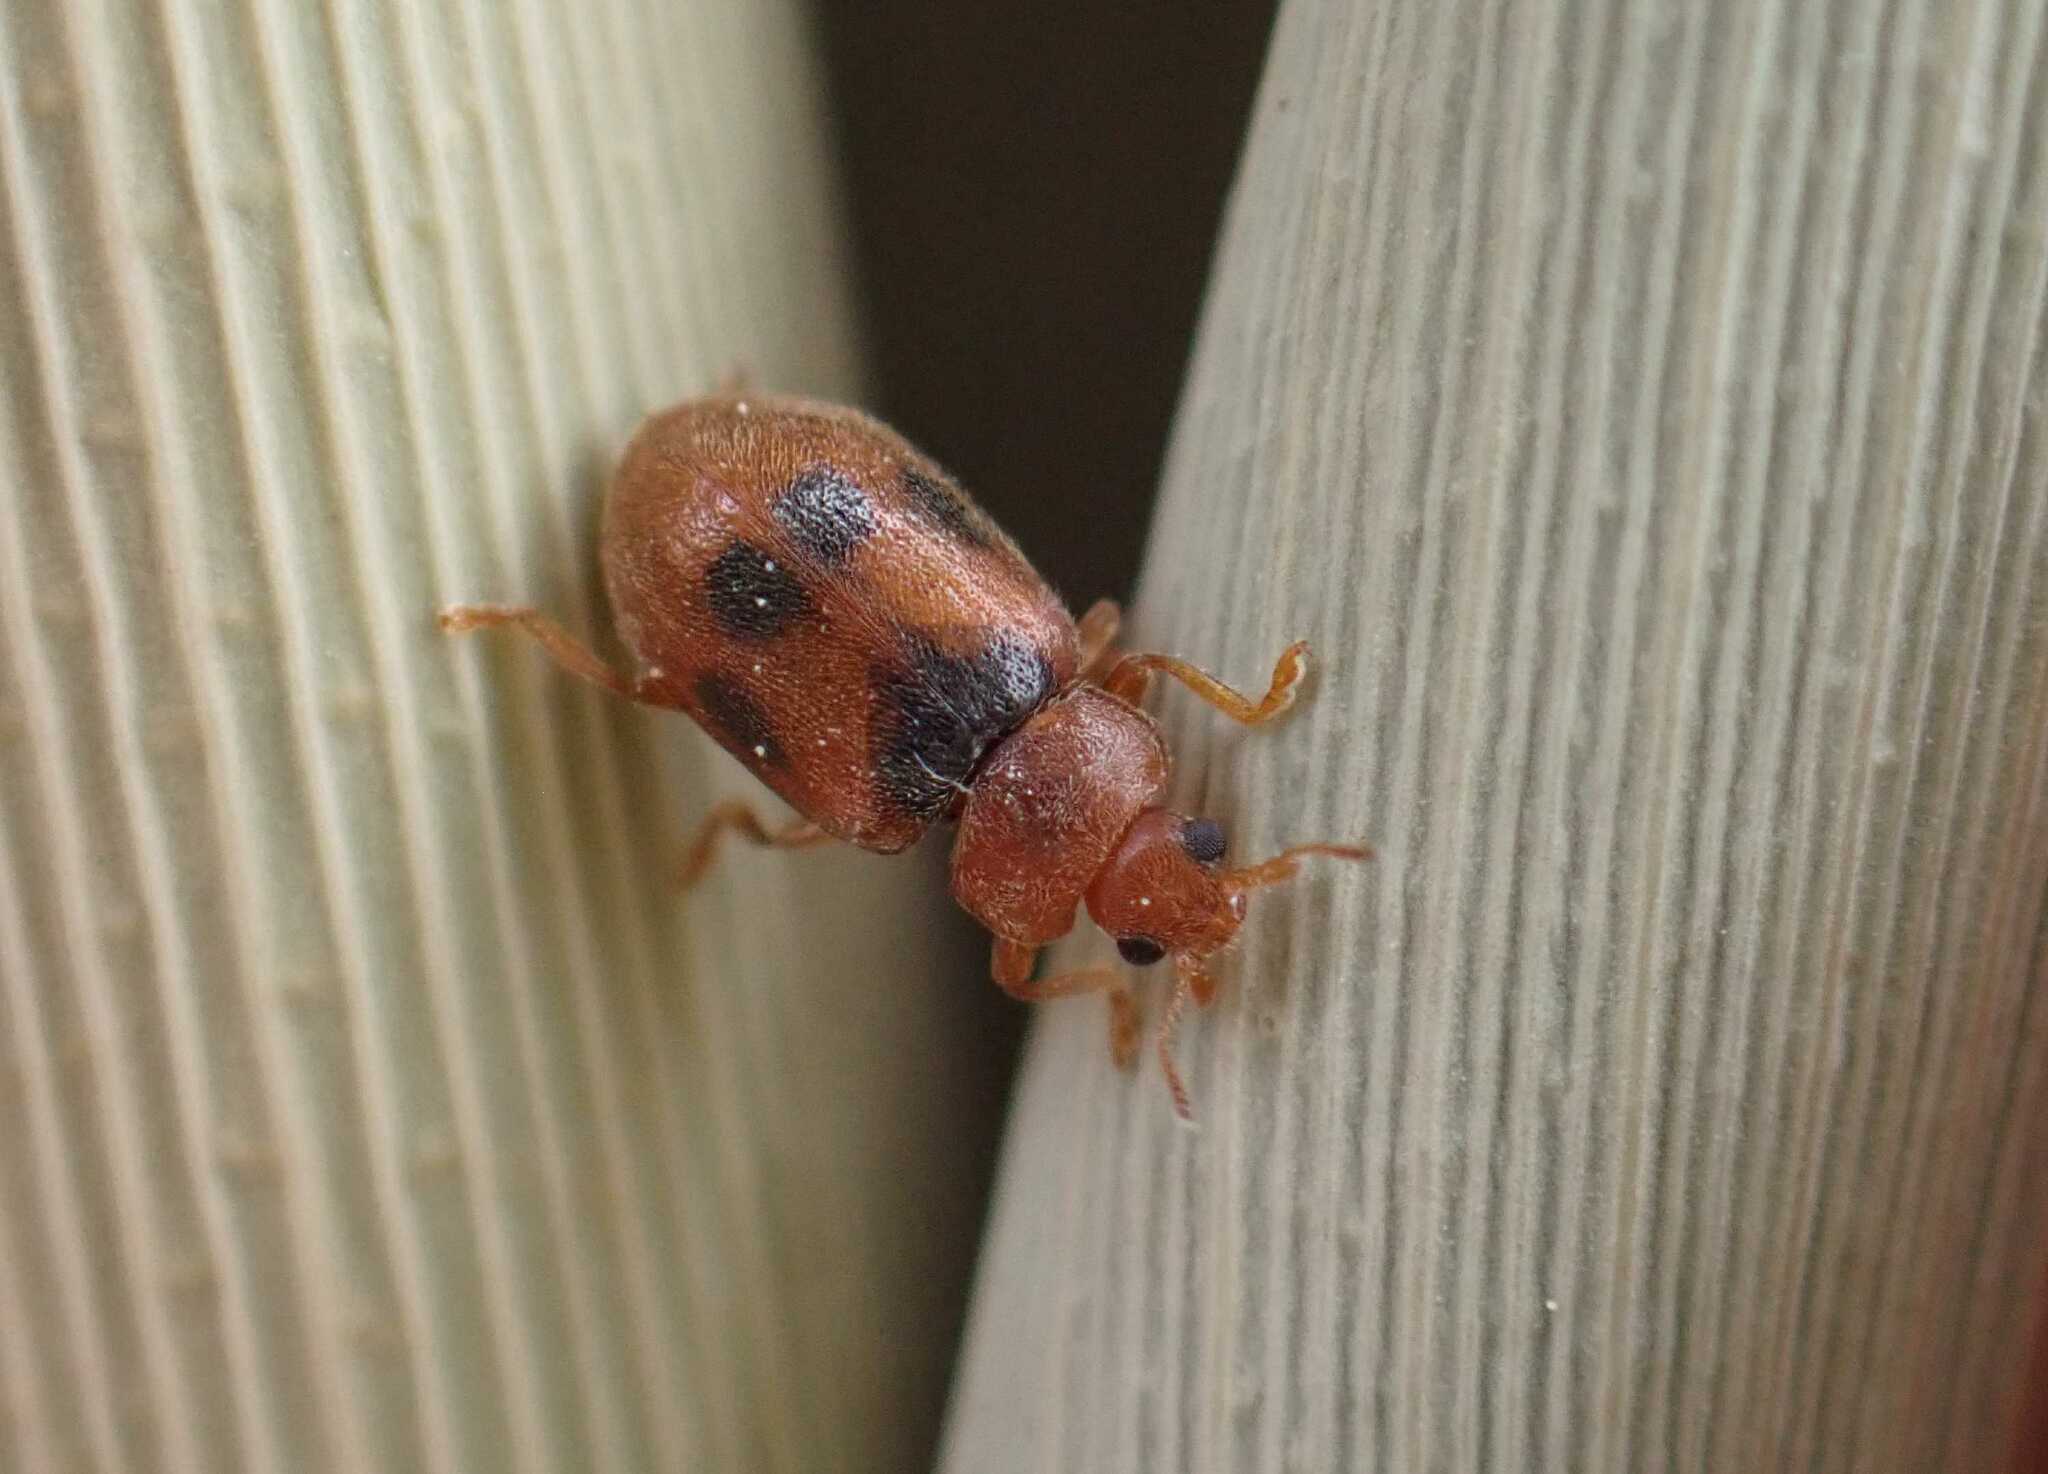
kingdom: Animalia
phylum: Arthropoda
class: Insecta
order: Coleoptera
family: Coccinellidae
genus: Coccidula
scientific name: Coccidula scutellata
